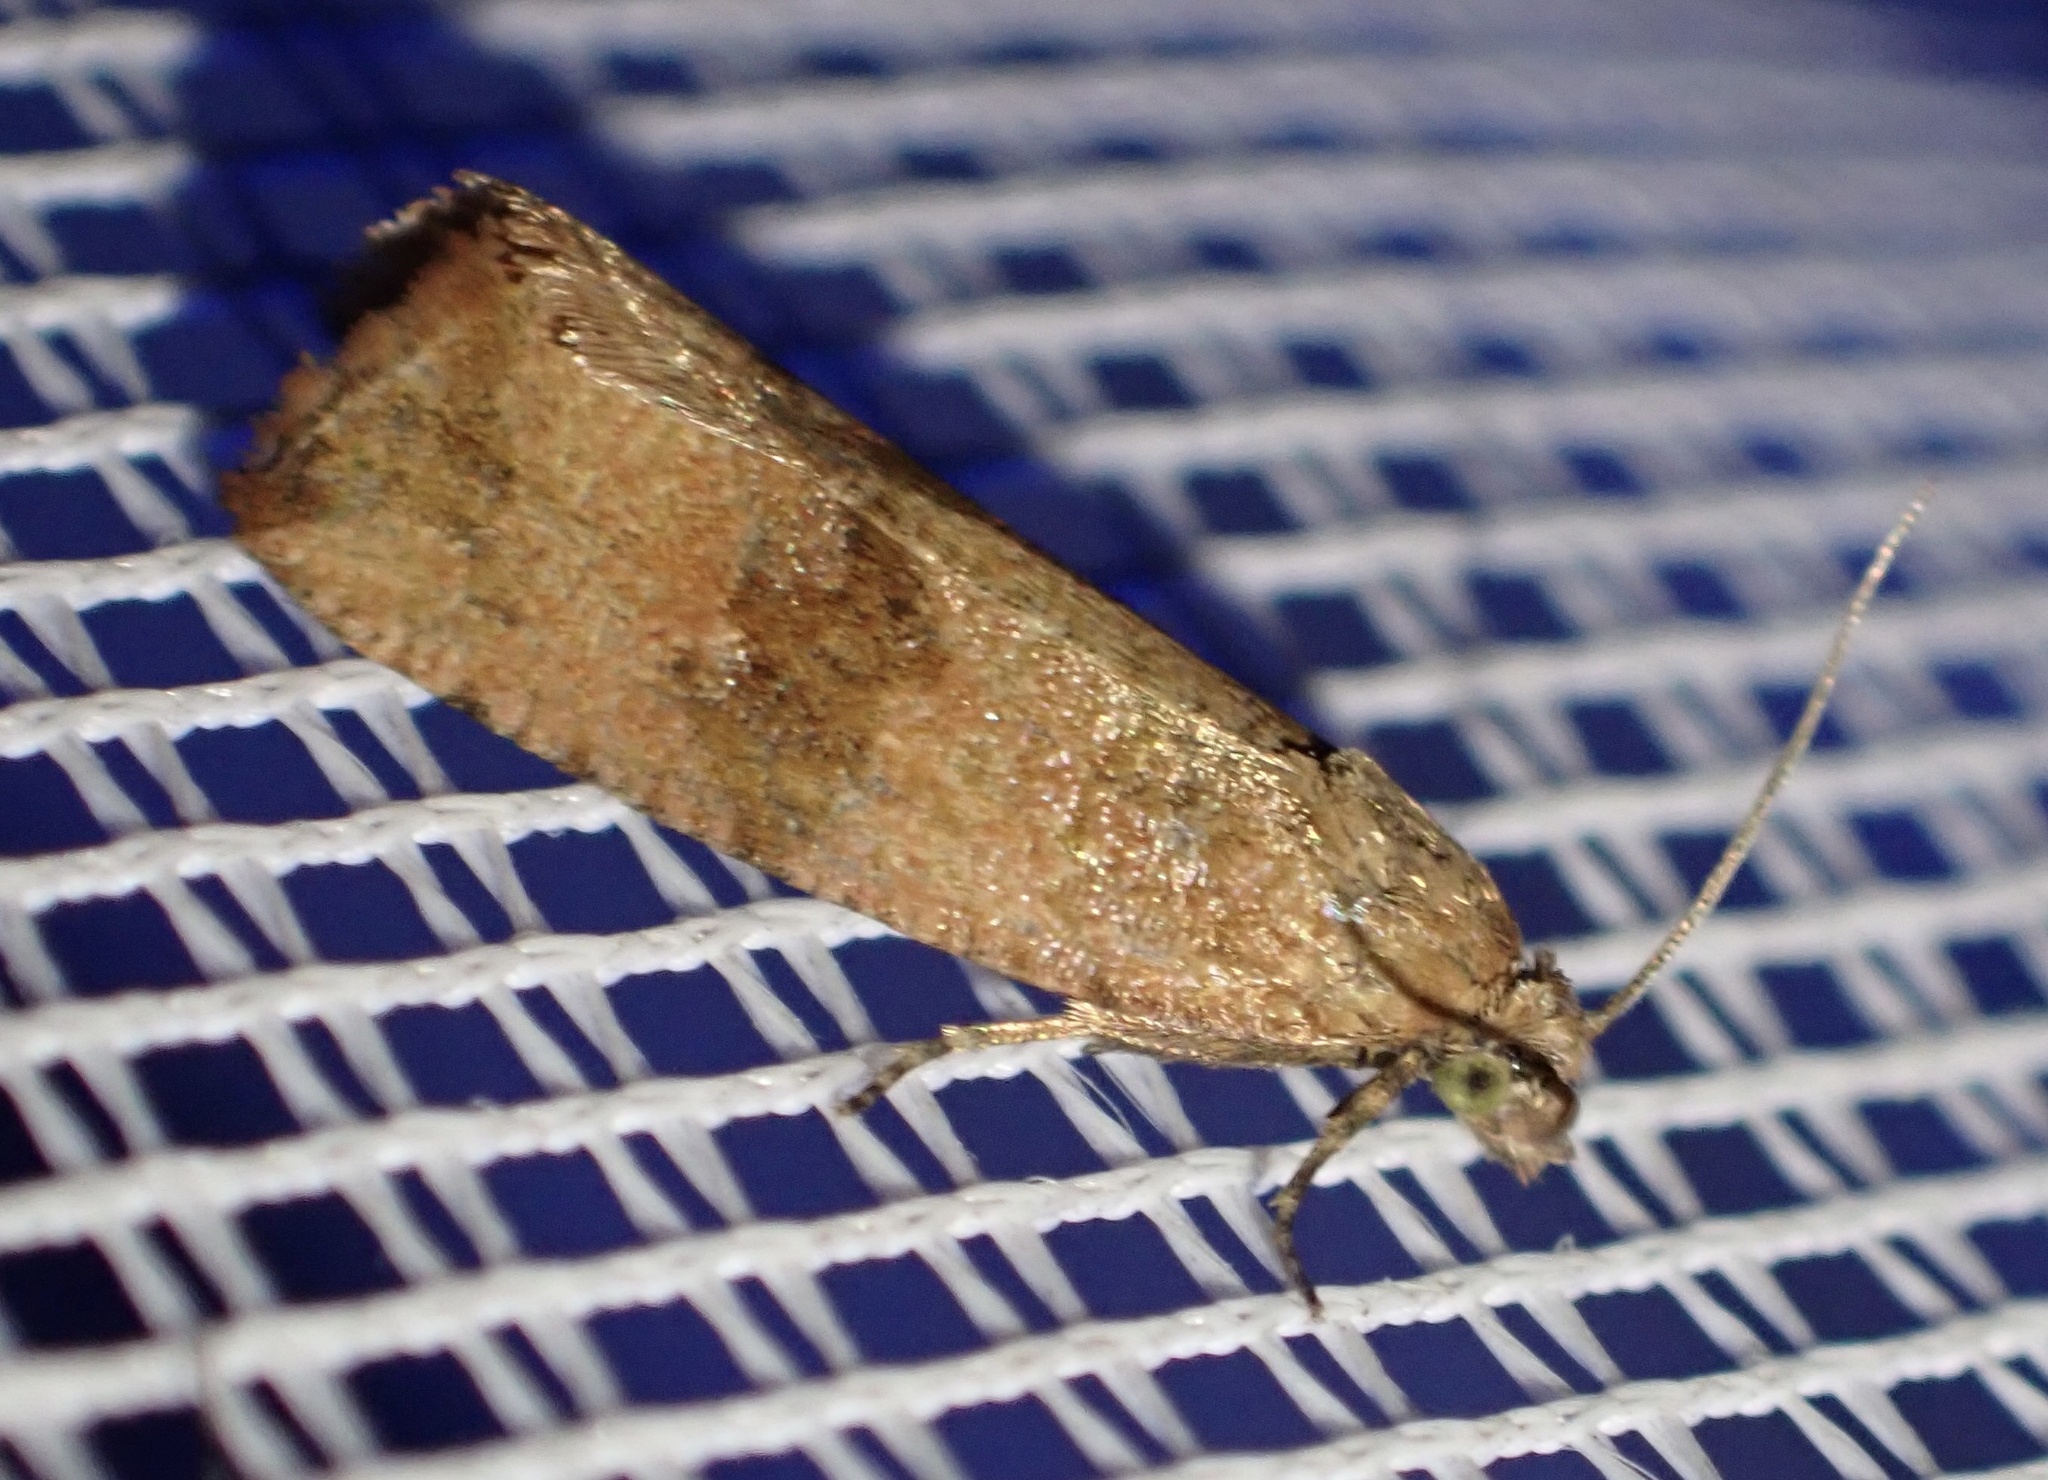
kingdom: Animalia
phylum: Arthropoda
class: Insecta
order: Lepidoptera
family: Tortricidae
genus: Celypha
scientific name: Celypha striana
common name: Barred marble
